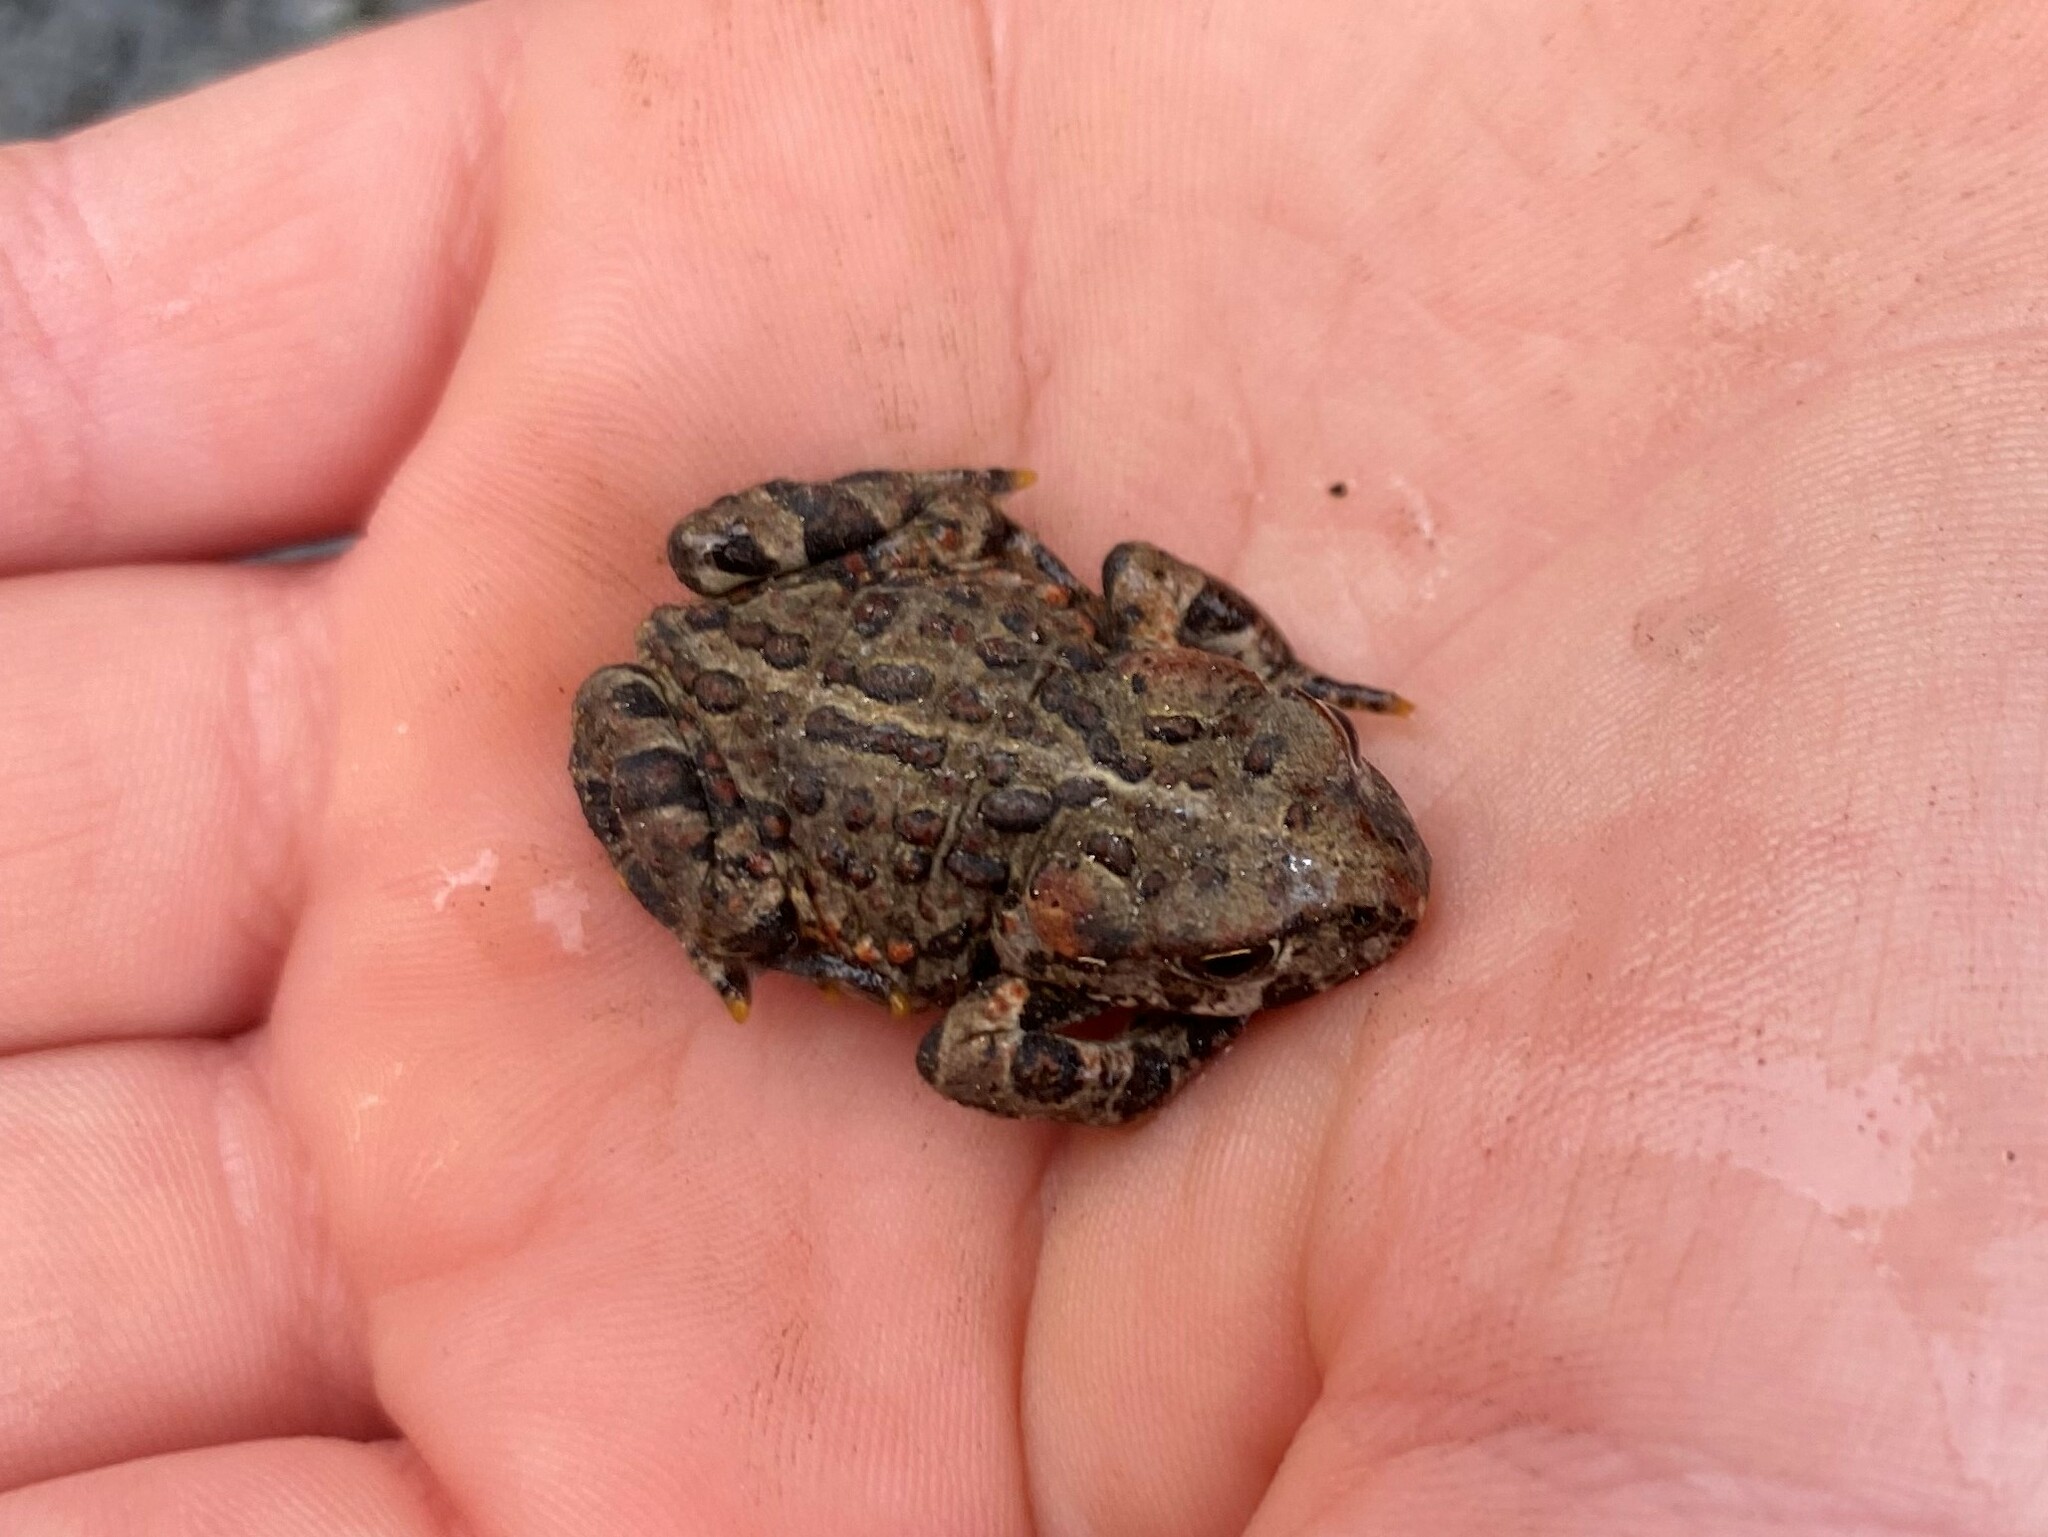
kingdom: Animalia
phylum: Chordata
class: Amphibia
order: Anura
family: Bufonidae
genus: Anaxyrus
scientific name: Anaxyrus boreas
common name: Western toad
